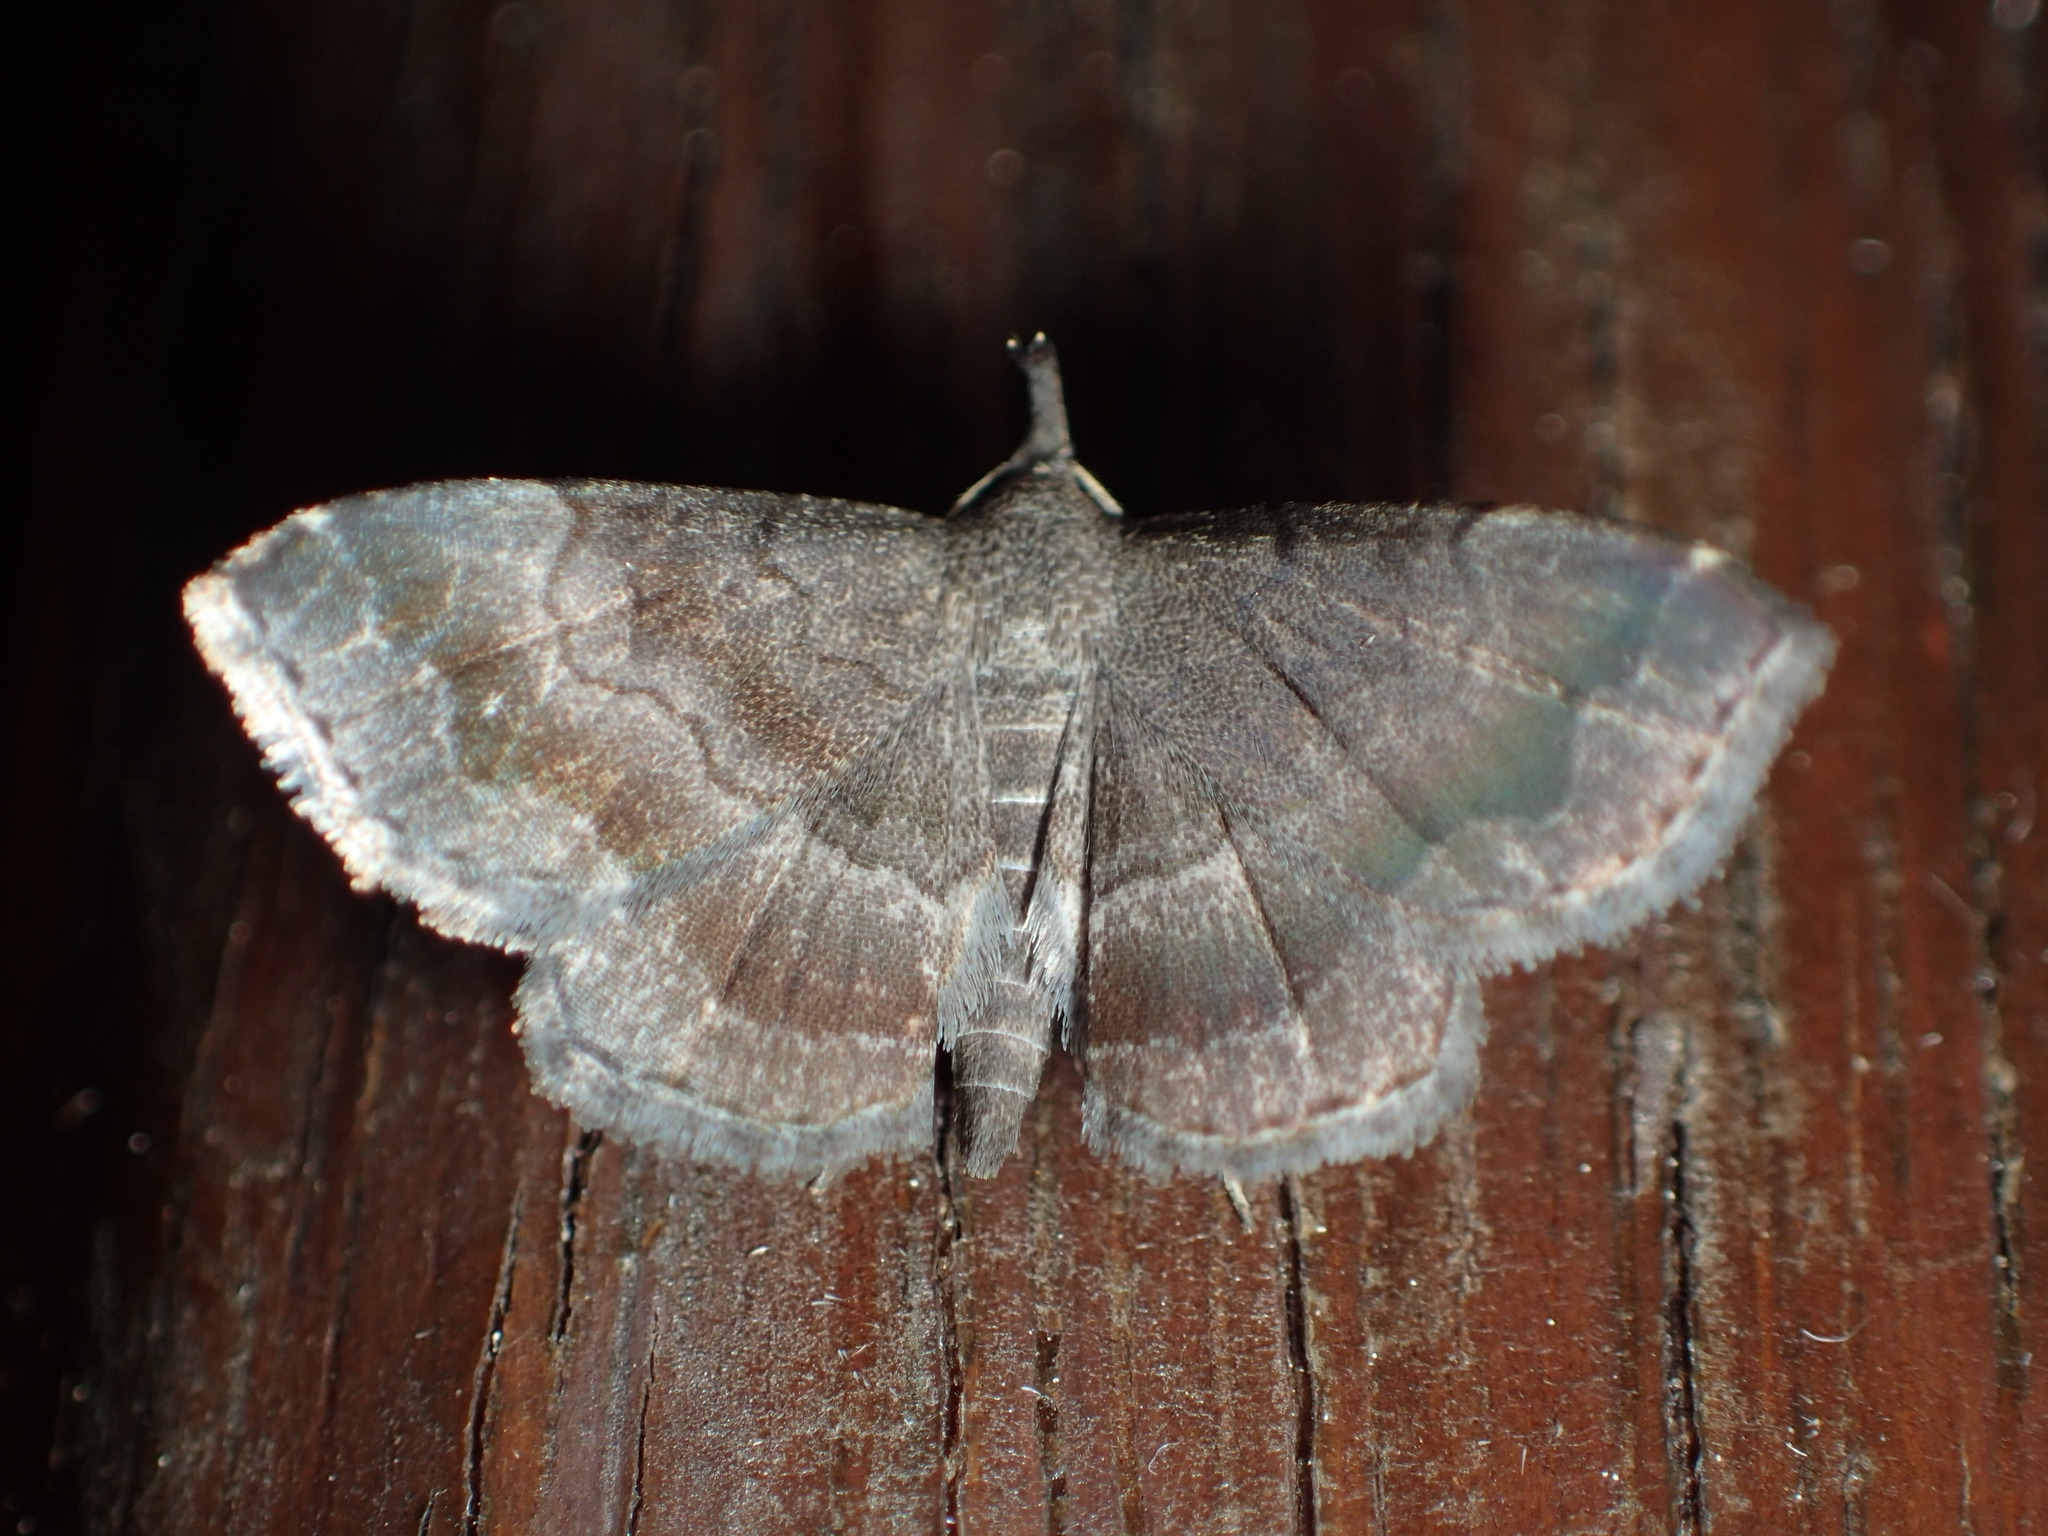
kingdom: Animalia
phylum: Arthropoda
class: Insecta
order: Lepidoptera
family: Erebidae
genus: Phalaenostola
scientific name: Phalaenostola larentioides
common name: Black-banded owlet
